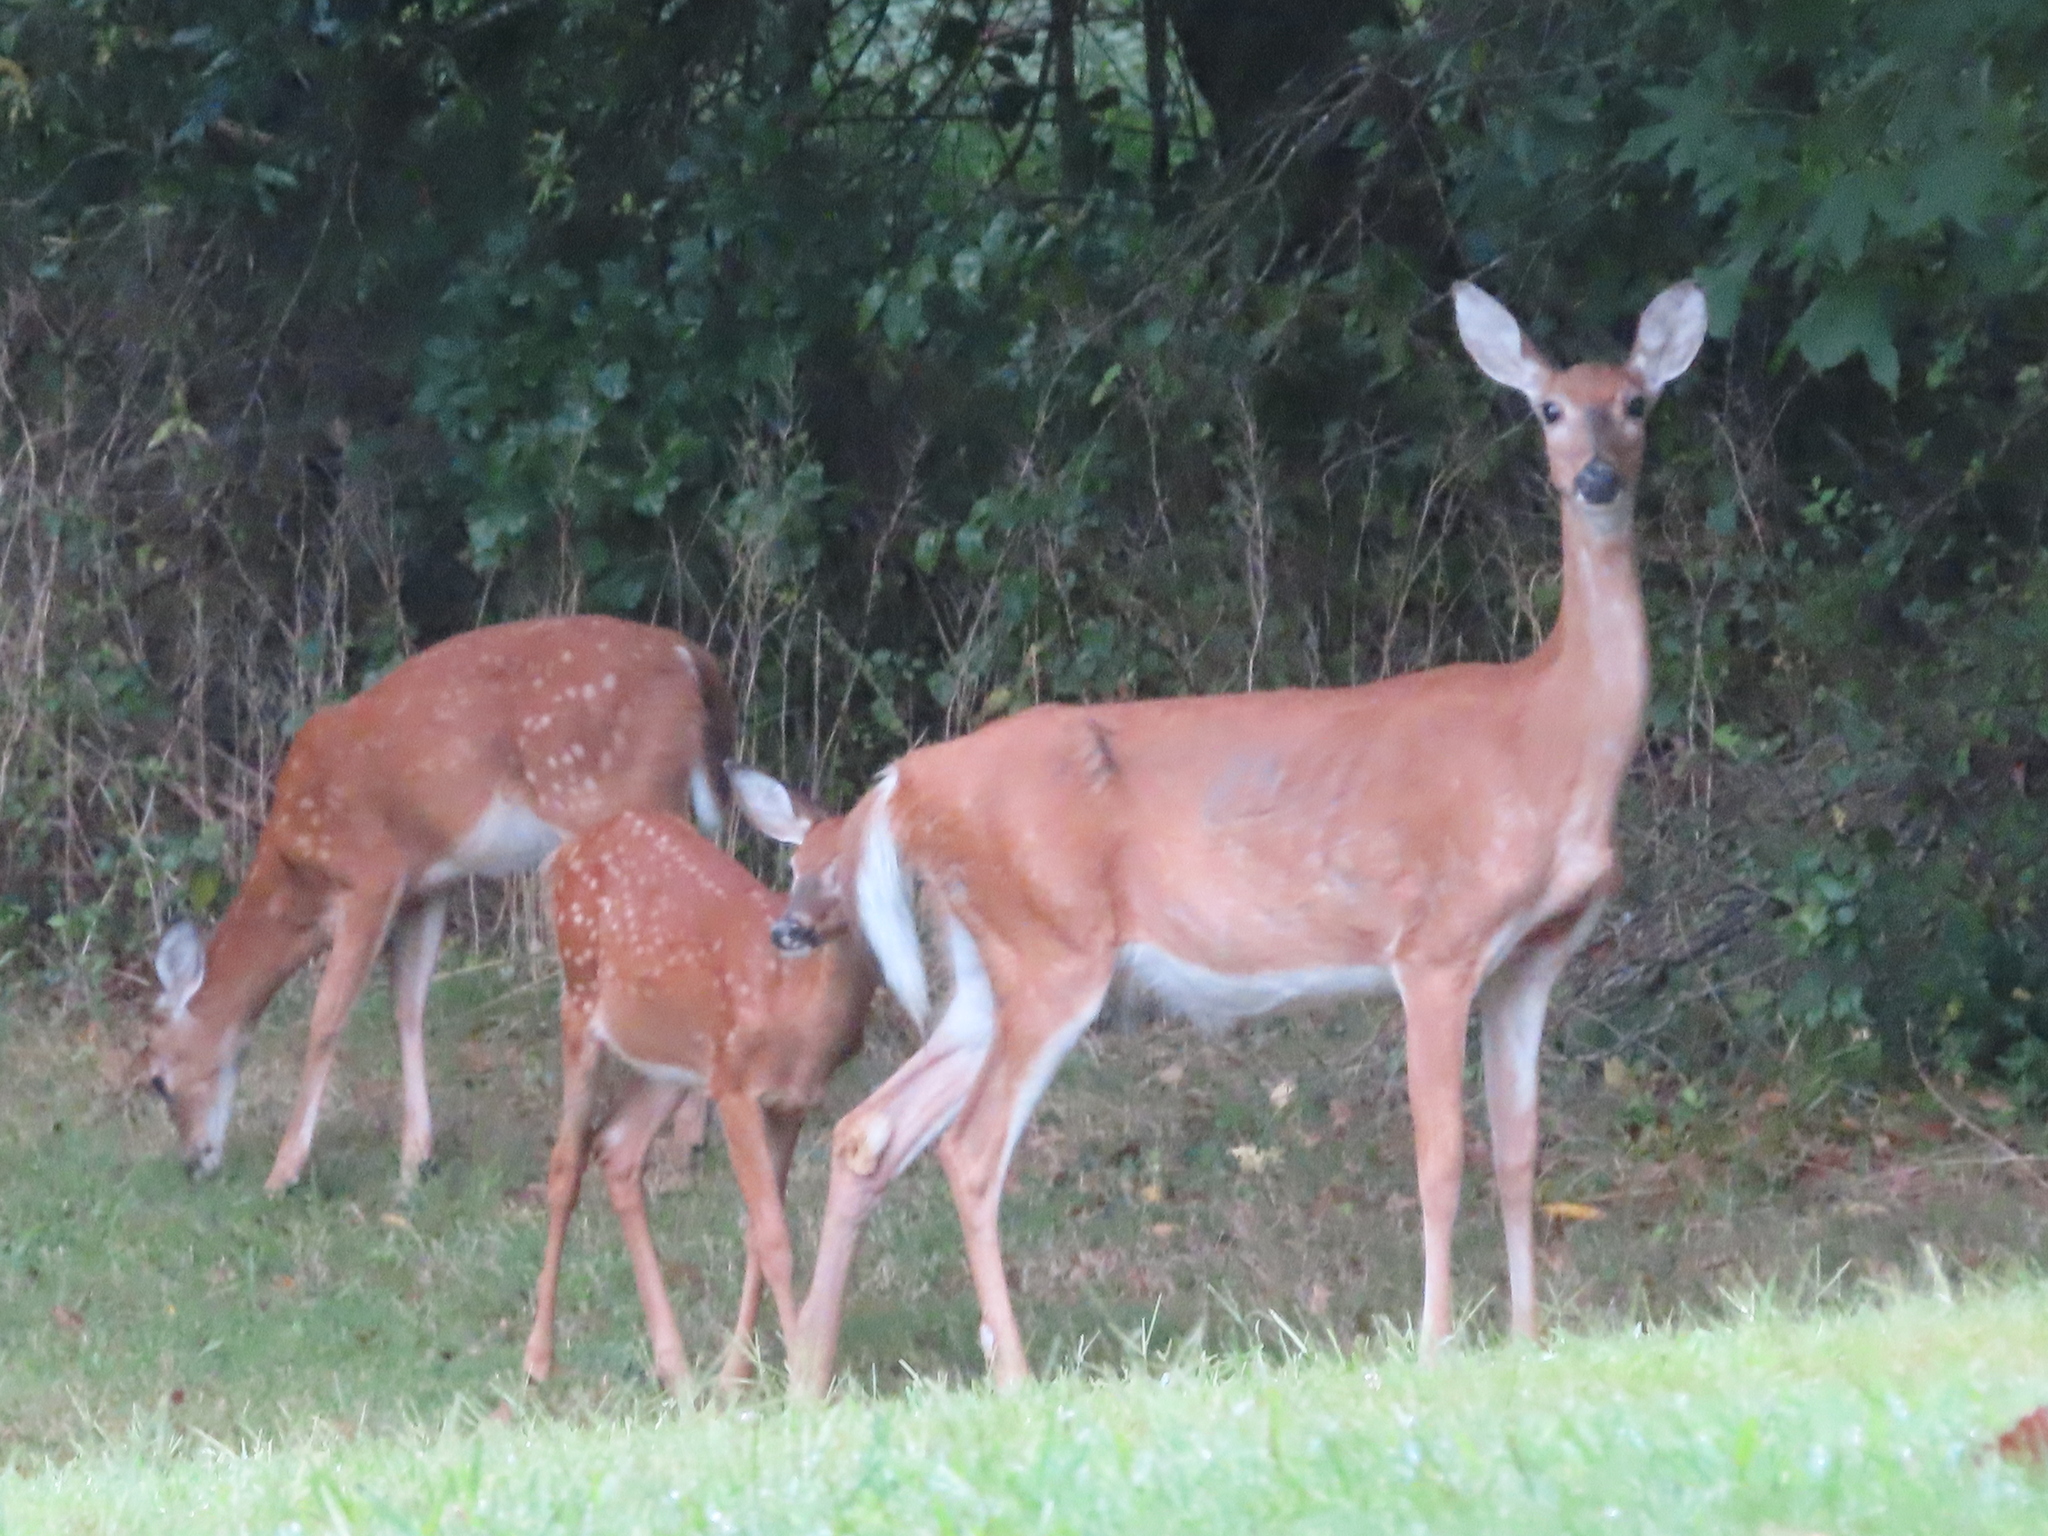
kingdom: Animalia
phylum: Chordata
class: Mammalia
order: Artiodactyla
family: Cervidae
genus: Odocoileus
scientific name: Odocoileus virginianus
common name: White-tailed deer
